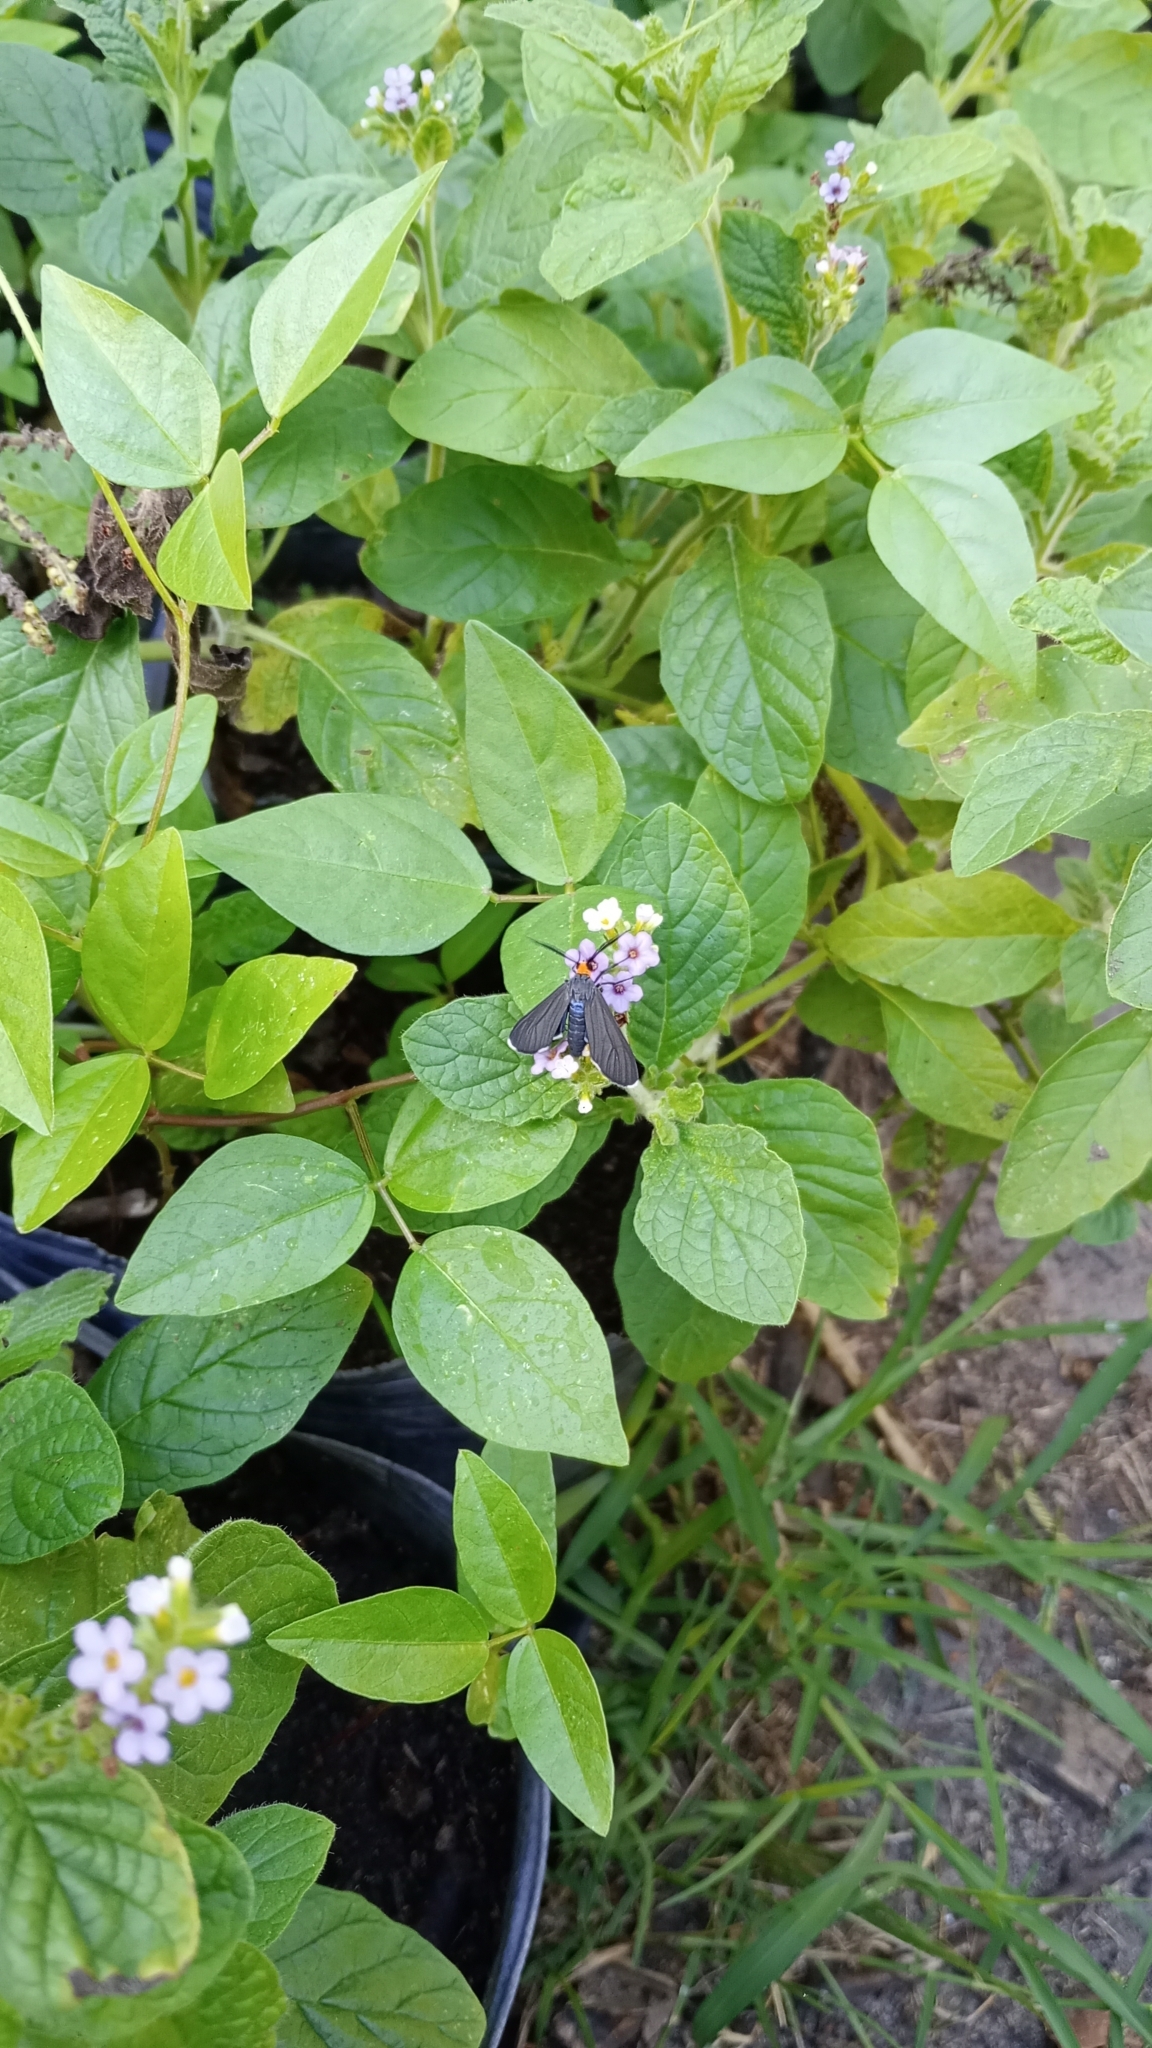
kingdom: Animalia
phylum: Arthropoda
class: Insecta
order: Lepidoptera
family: Erebidae
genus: Ctenucha
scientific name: Ctenucha rubriceps
